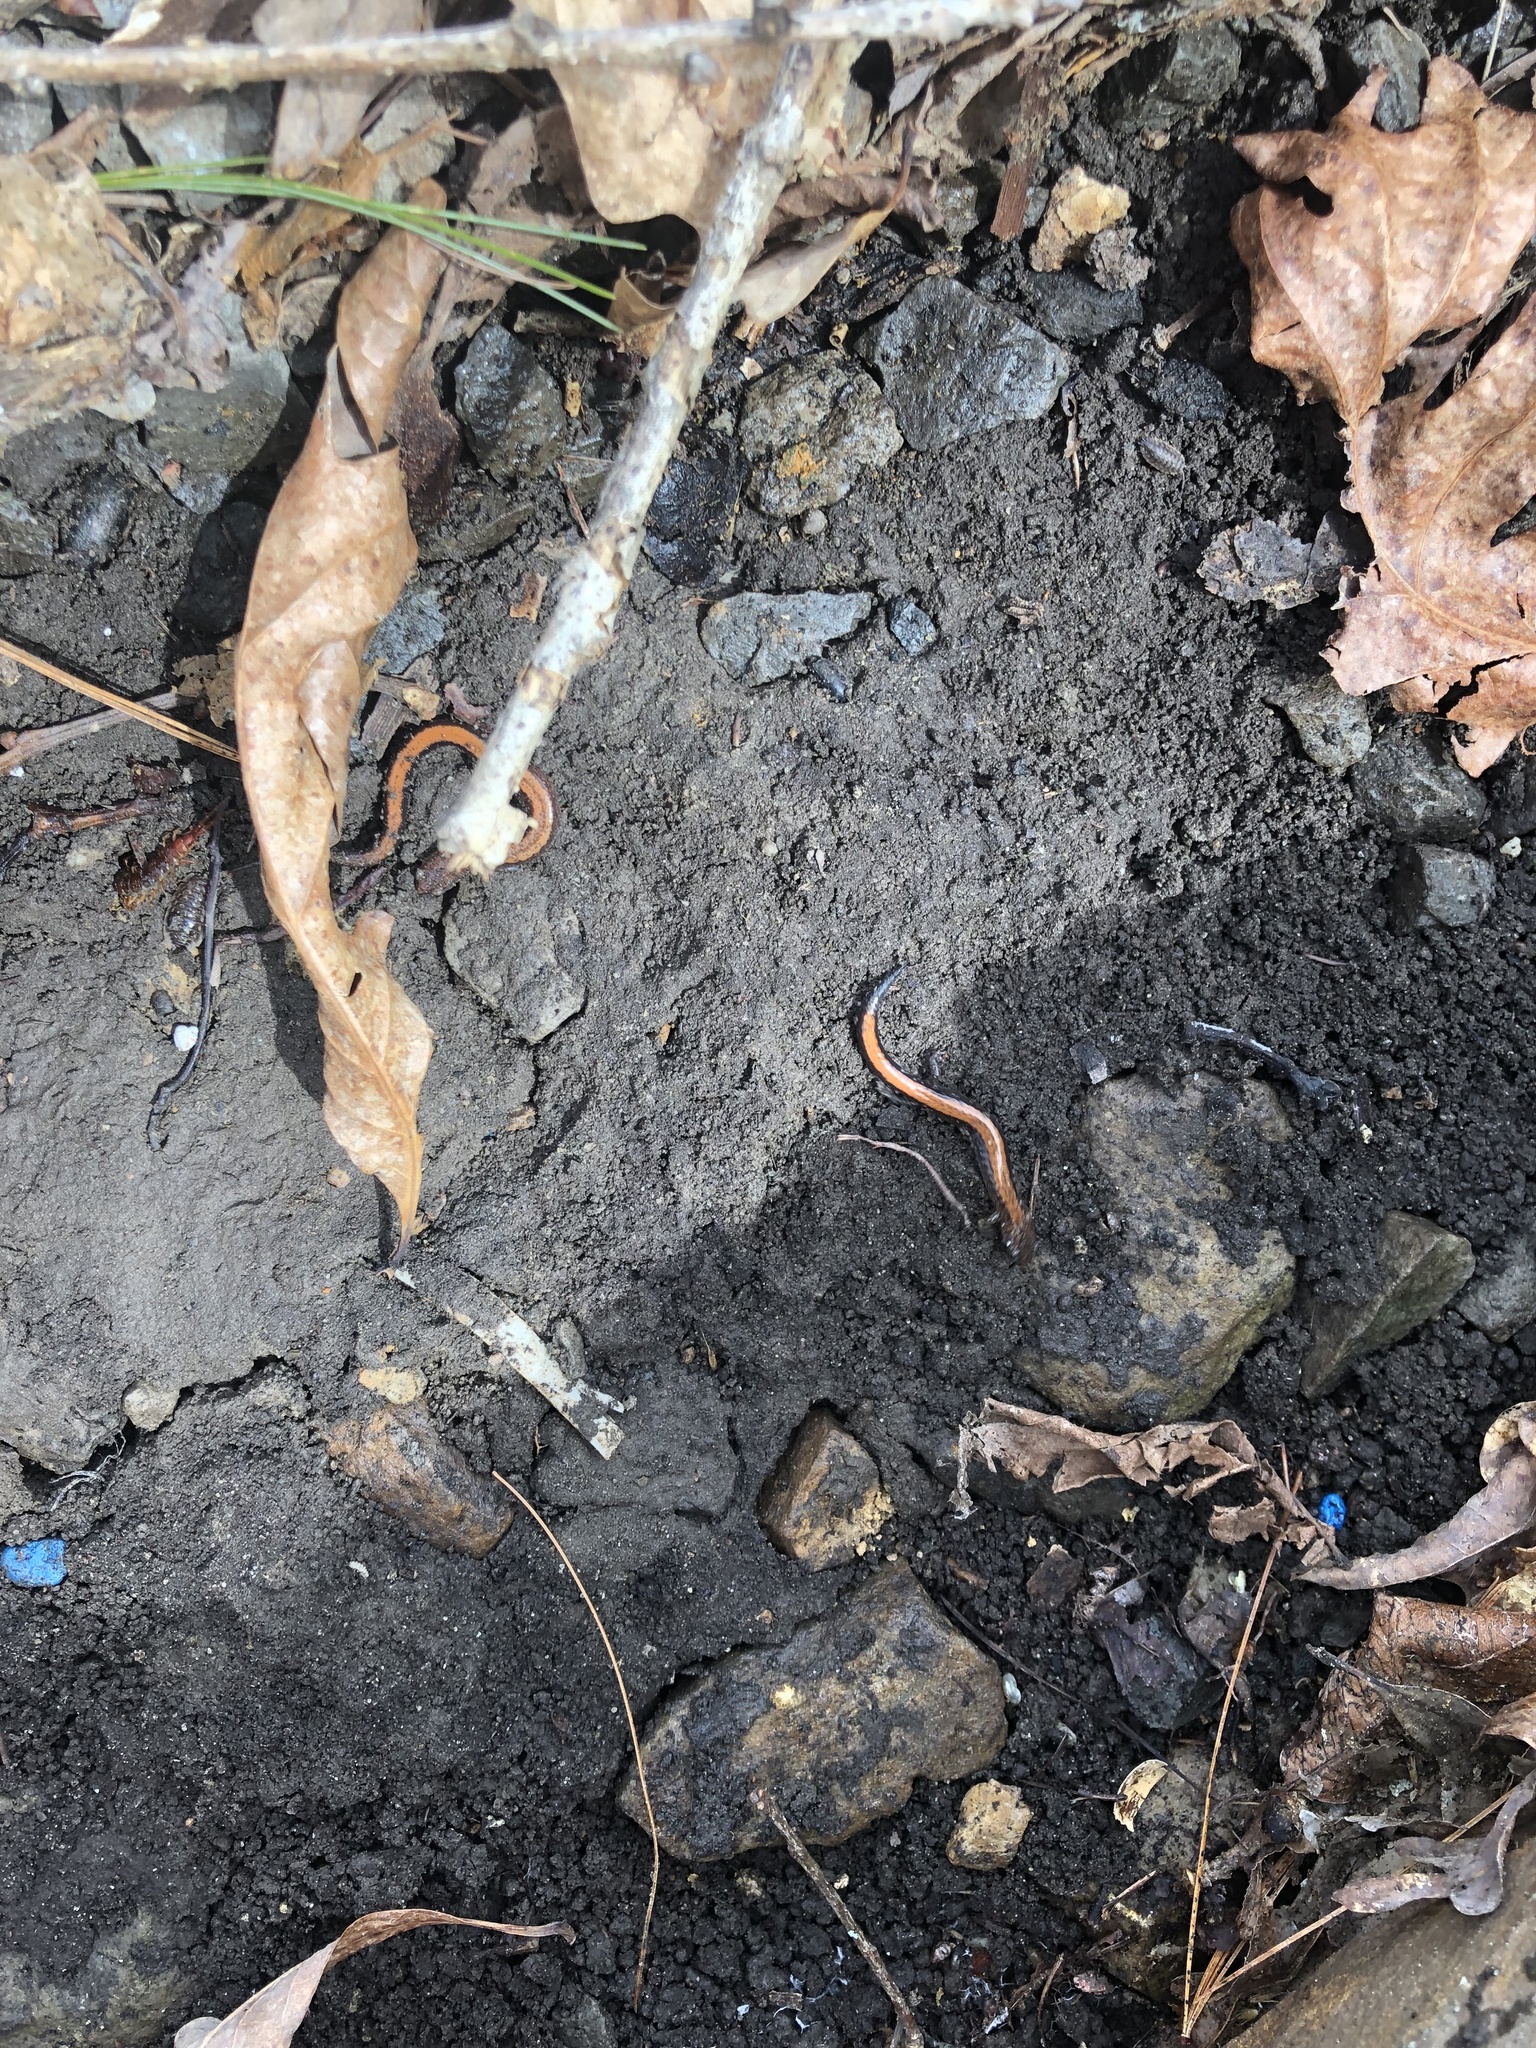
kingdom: Animalia
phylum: Chordata
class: Amphibia
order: Caudata
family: Plethodontidae
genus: Plethodon
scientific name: Plethodon cinereus
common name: Redback salamander
